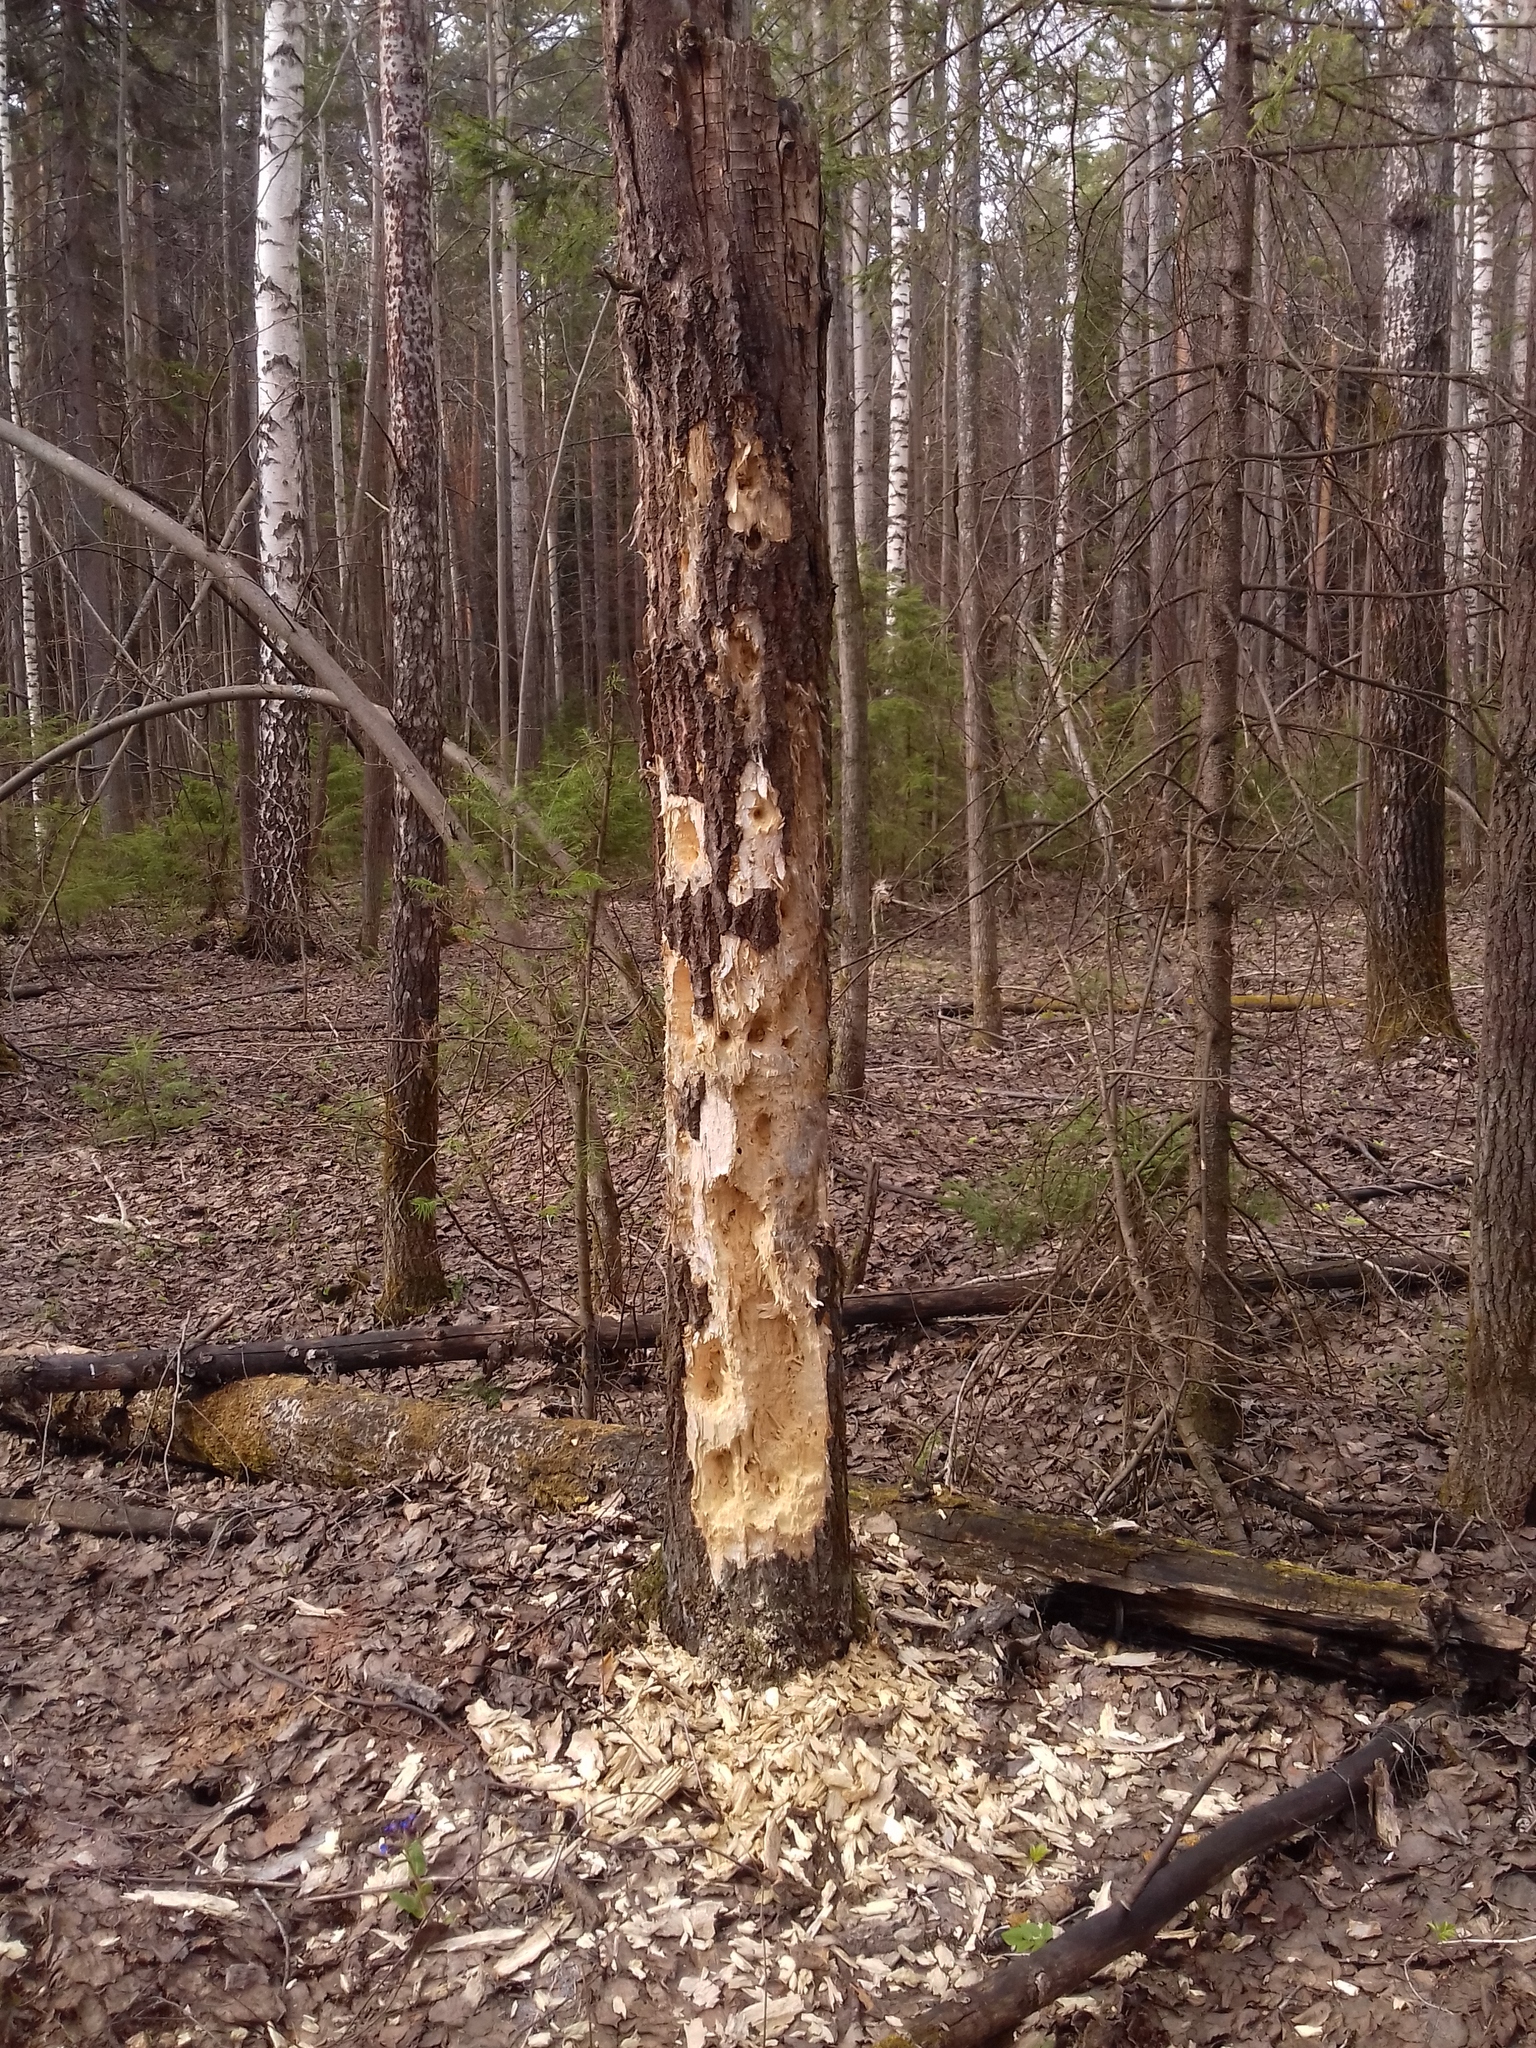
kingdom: Animalia
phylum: Chordata
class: Aves
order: Piciformes
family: Picidae
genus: Dryocopus
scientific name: Dryocopus martius
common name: Black woodpecker
